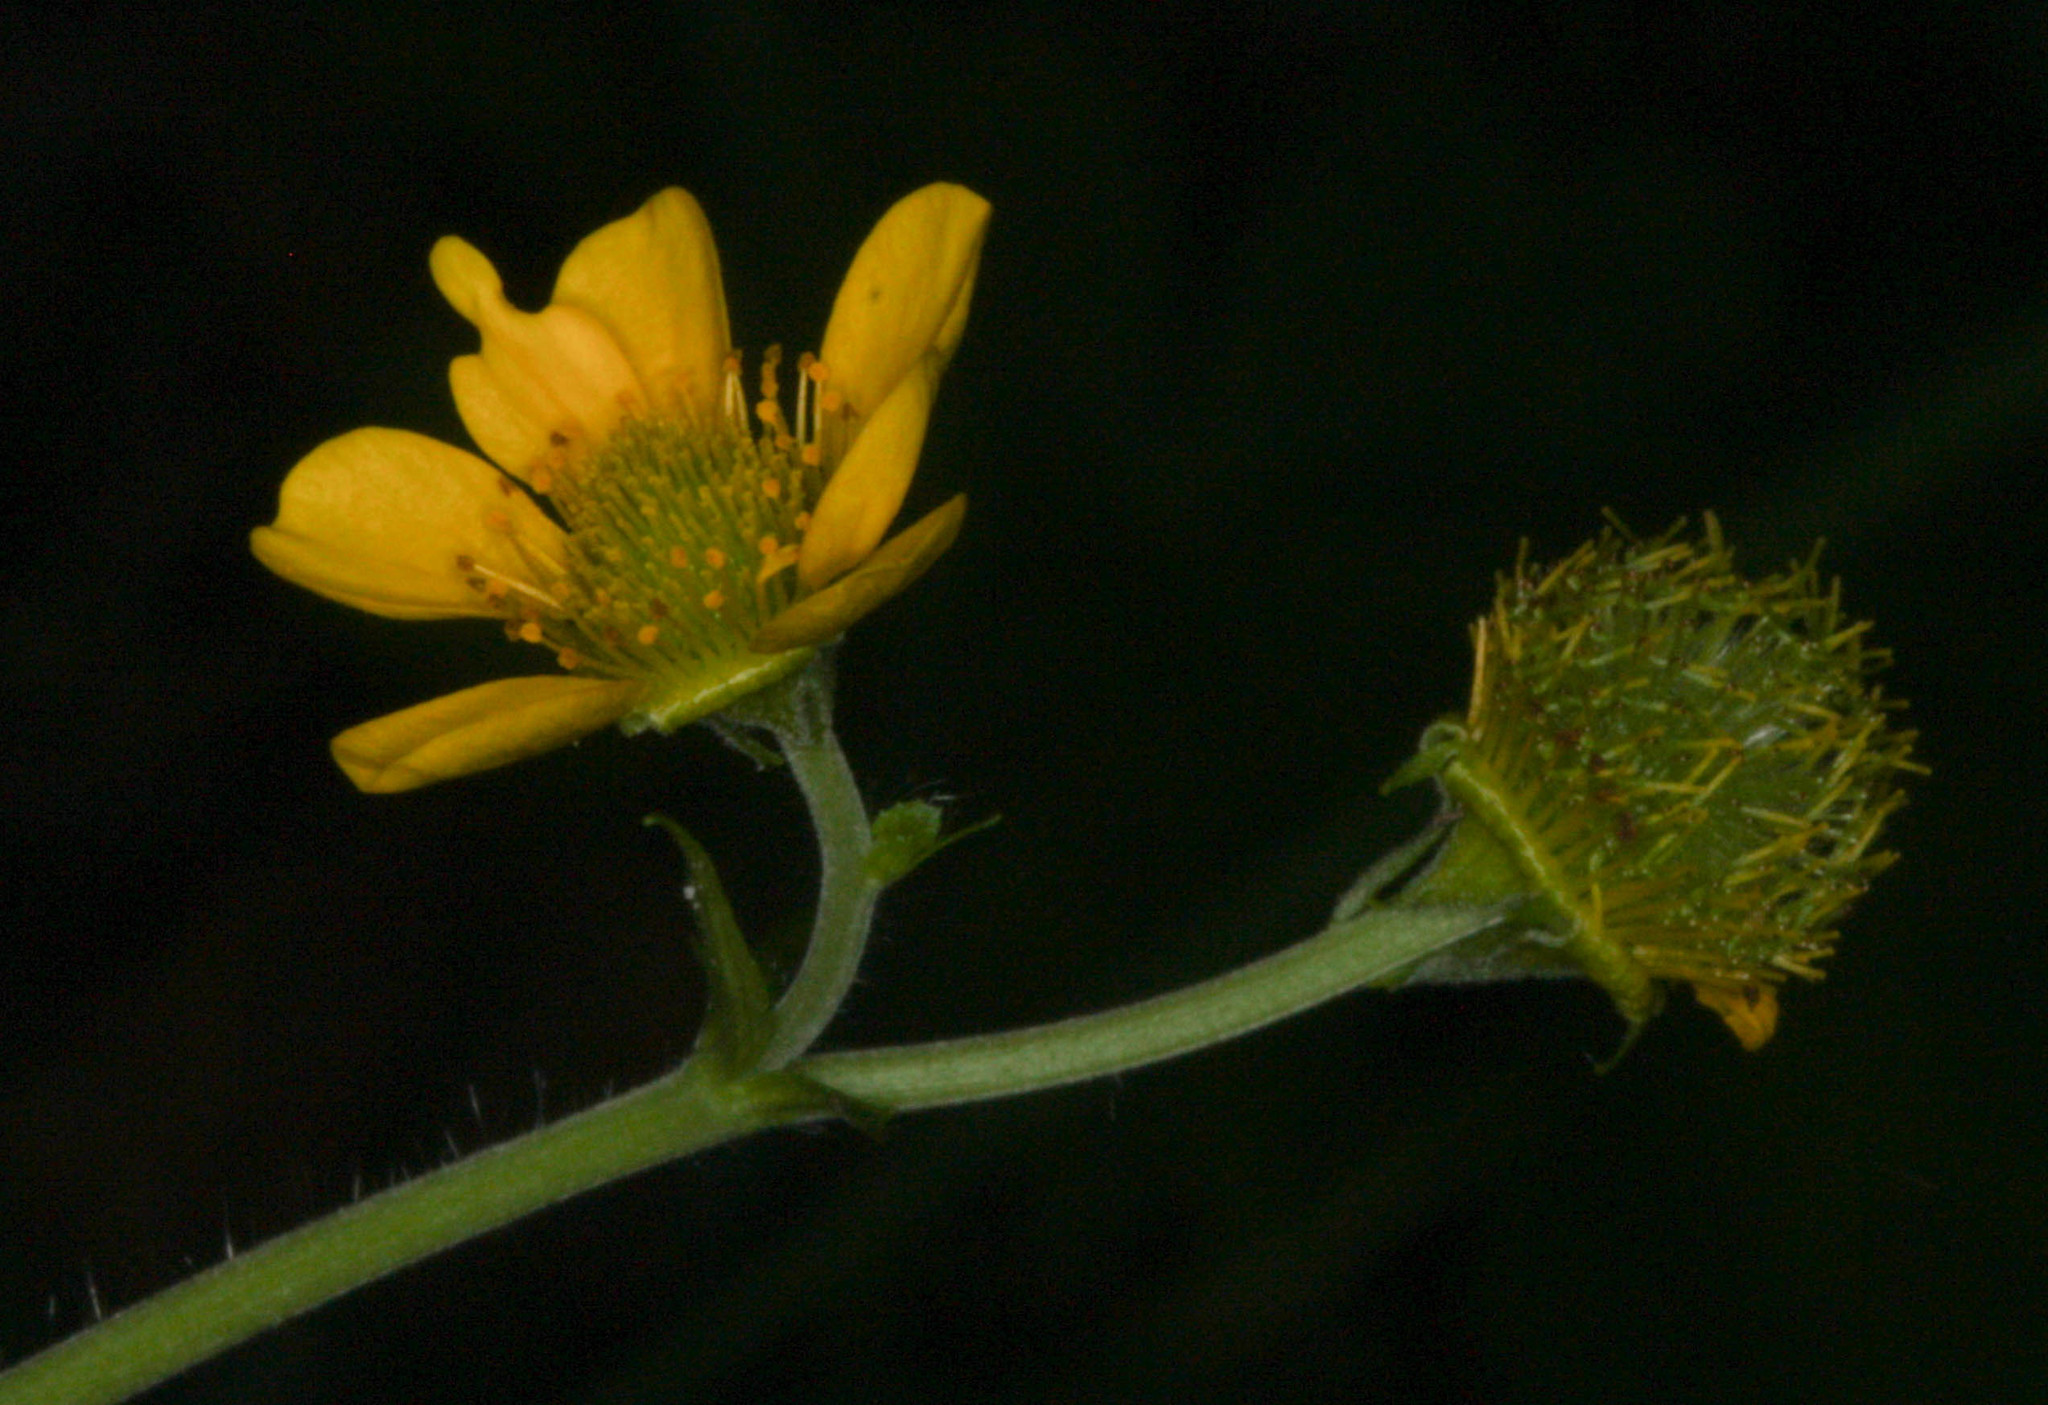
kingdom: Plantae
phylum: Tracheophyta
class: Magnoliopsida
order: Rosales
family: Rosaceae
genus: Geum
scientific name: Geum macrophyllum
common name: Large-leaved avens
